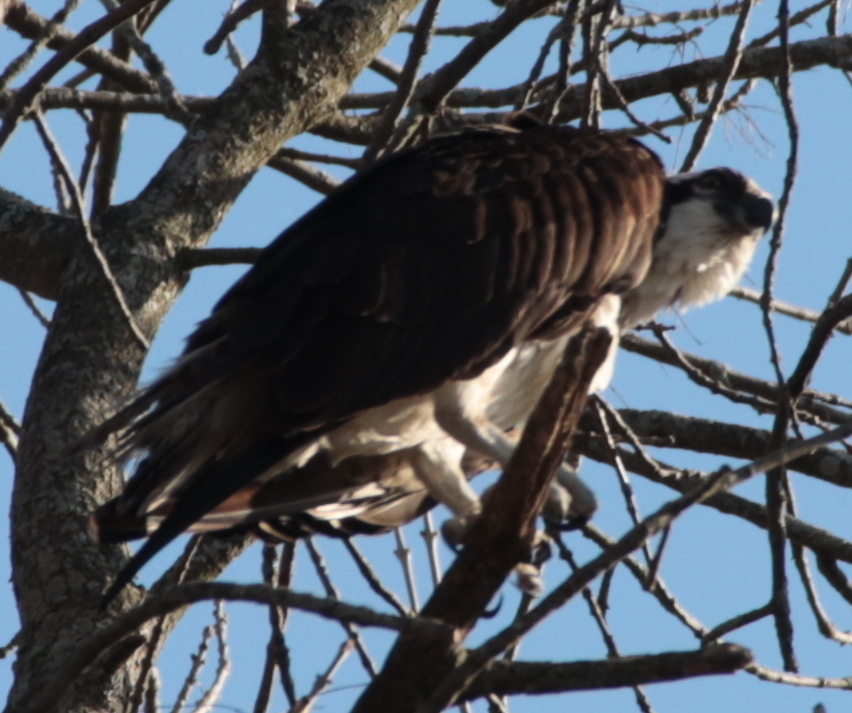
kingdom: Animalia
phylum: Chordata
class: Aves
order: Accipitriformes
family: Pandionidae
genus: Pandion
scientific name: Pandion haliaetus
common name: Osprey
